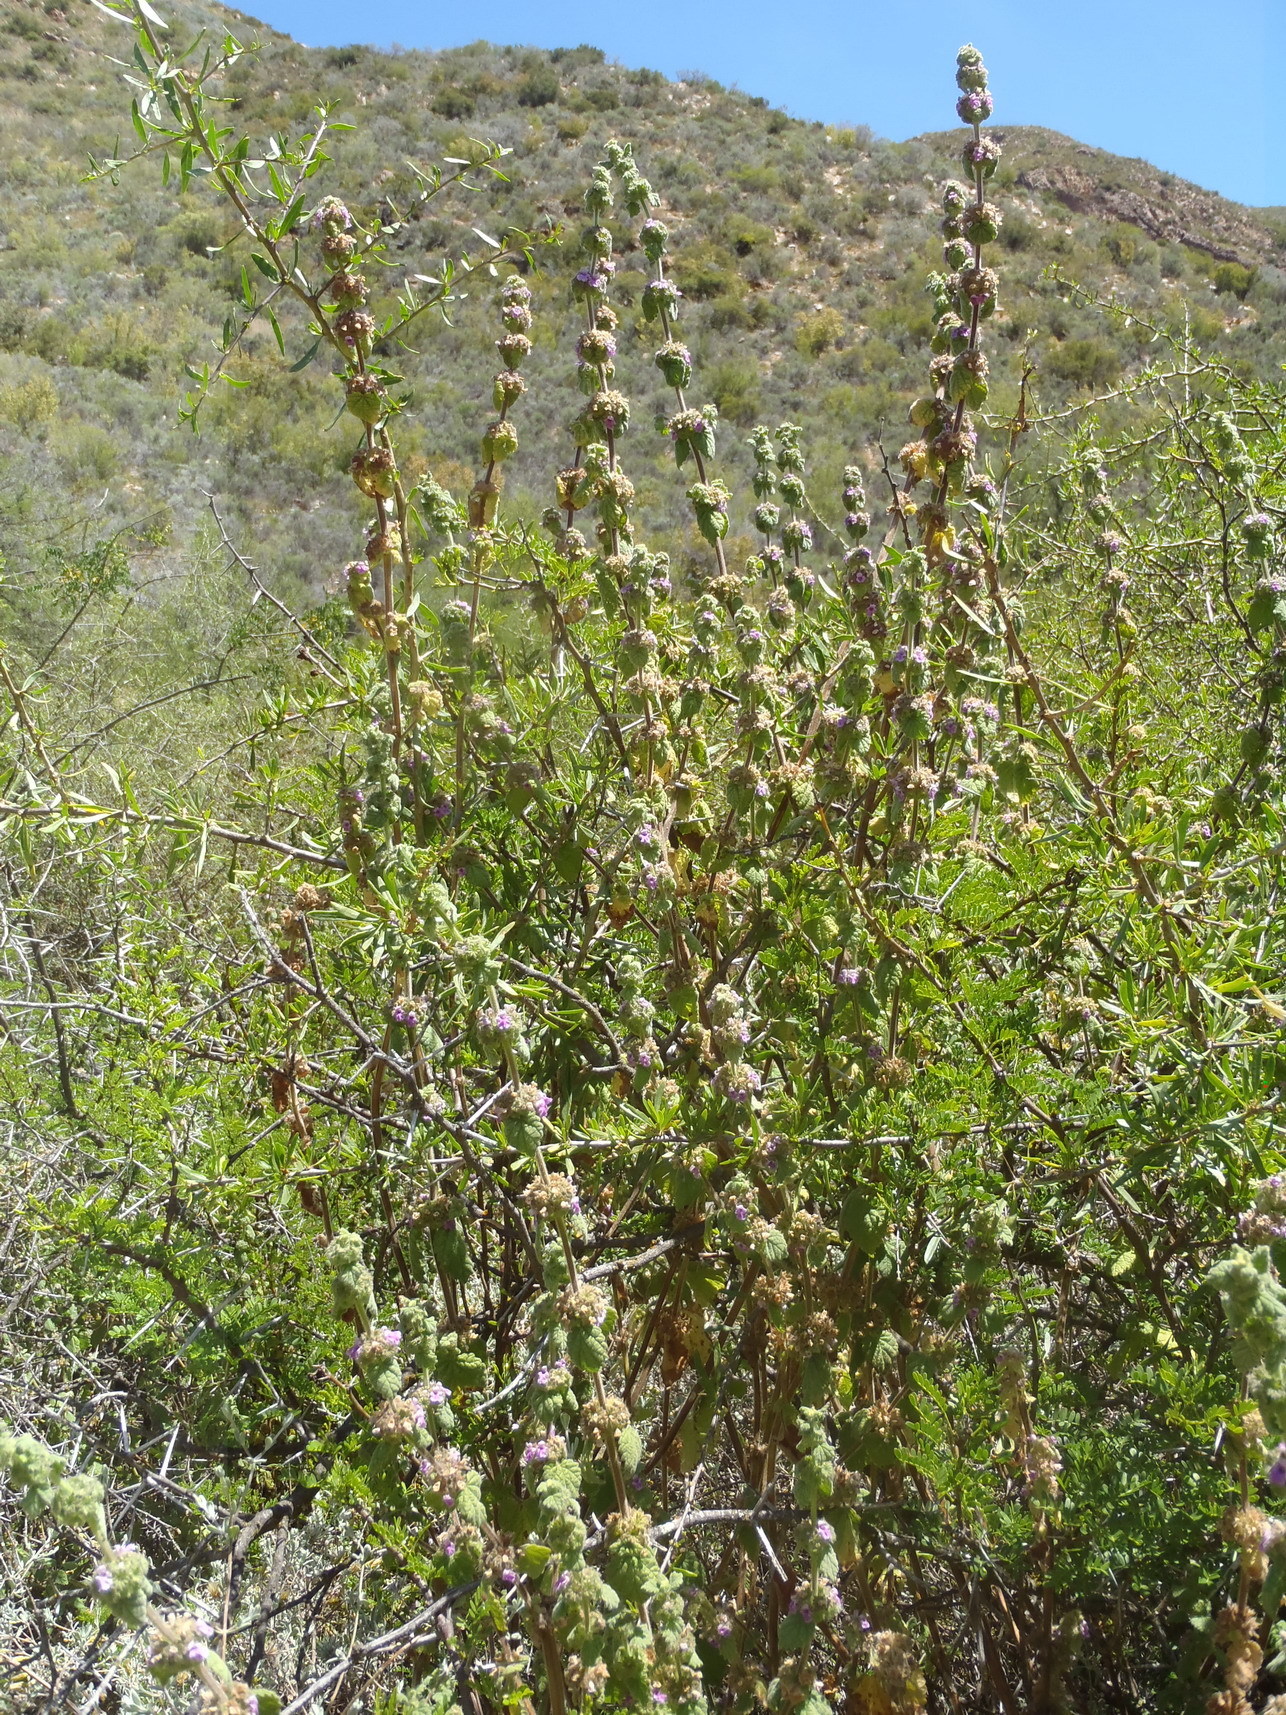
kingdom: Plantae
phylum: Tracheophyta
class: Magnoliopsida
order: Lamiales
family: Lamiaceae
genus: Pseudodictamnus
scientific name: Pseudodictamnus africanus
